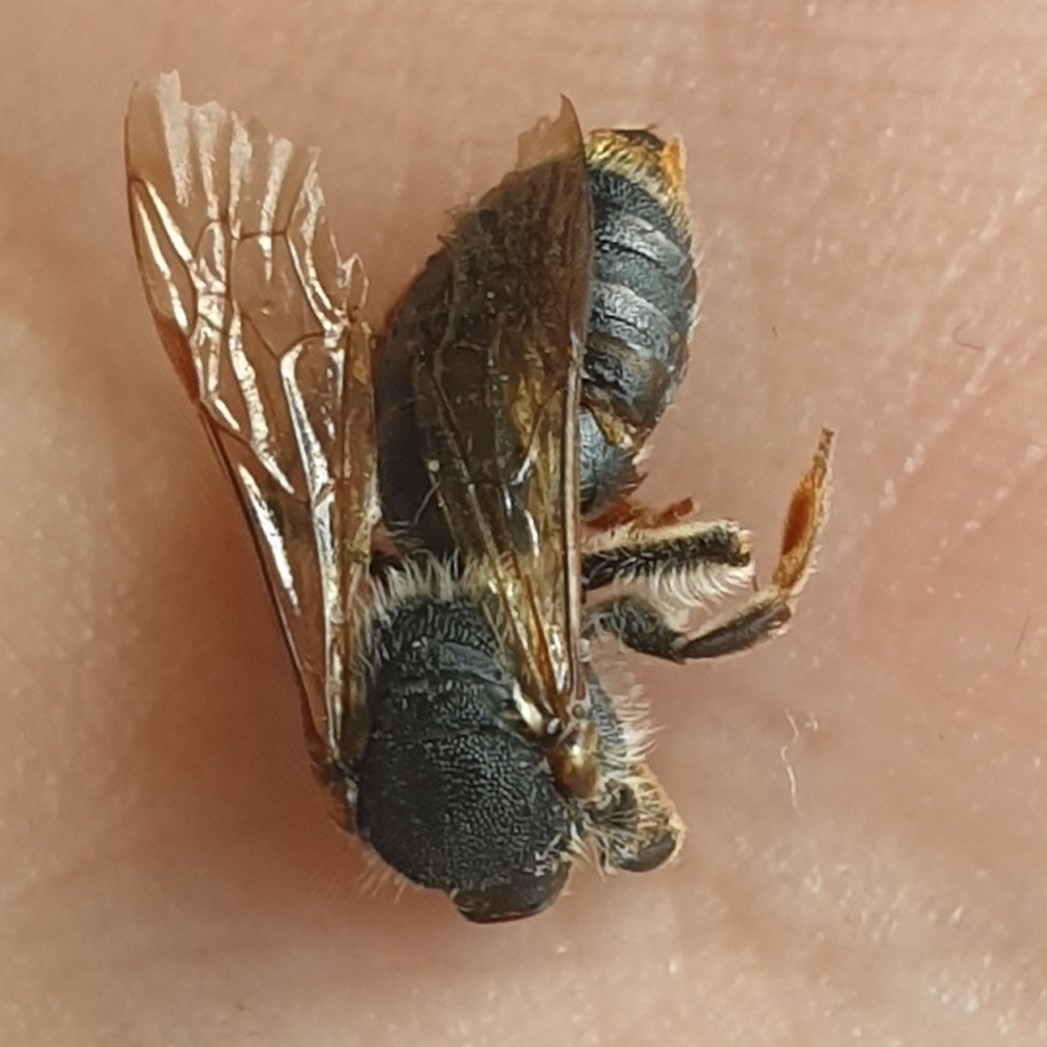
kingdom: Animalia
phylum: Arthropoda
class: Insecta
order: Hymenoptera
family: Andrenidae
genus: Andrena
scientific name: Andrena haemorrhoa
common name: Early mining bee
